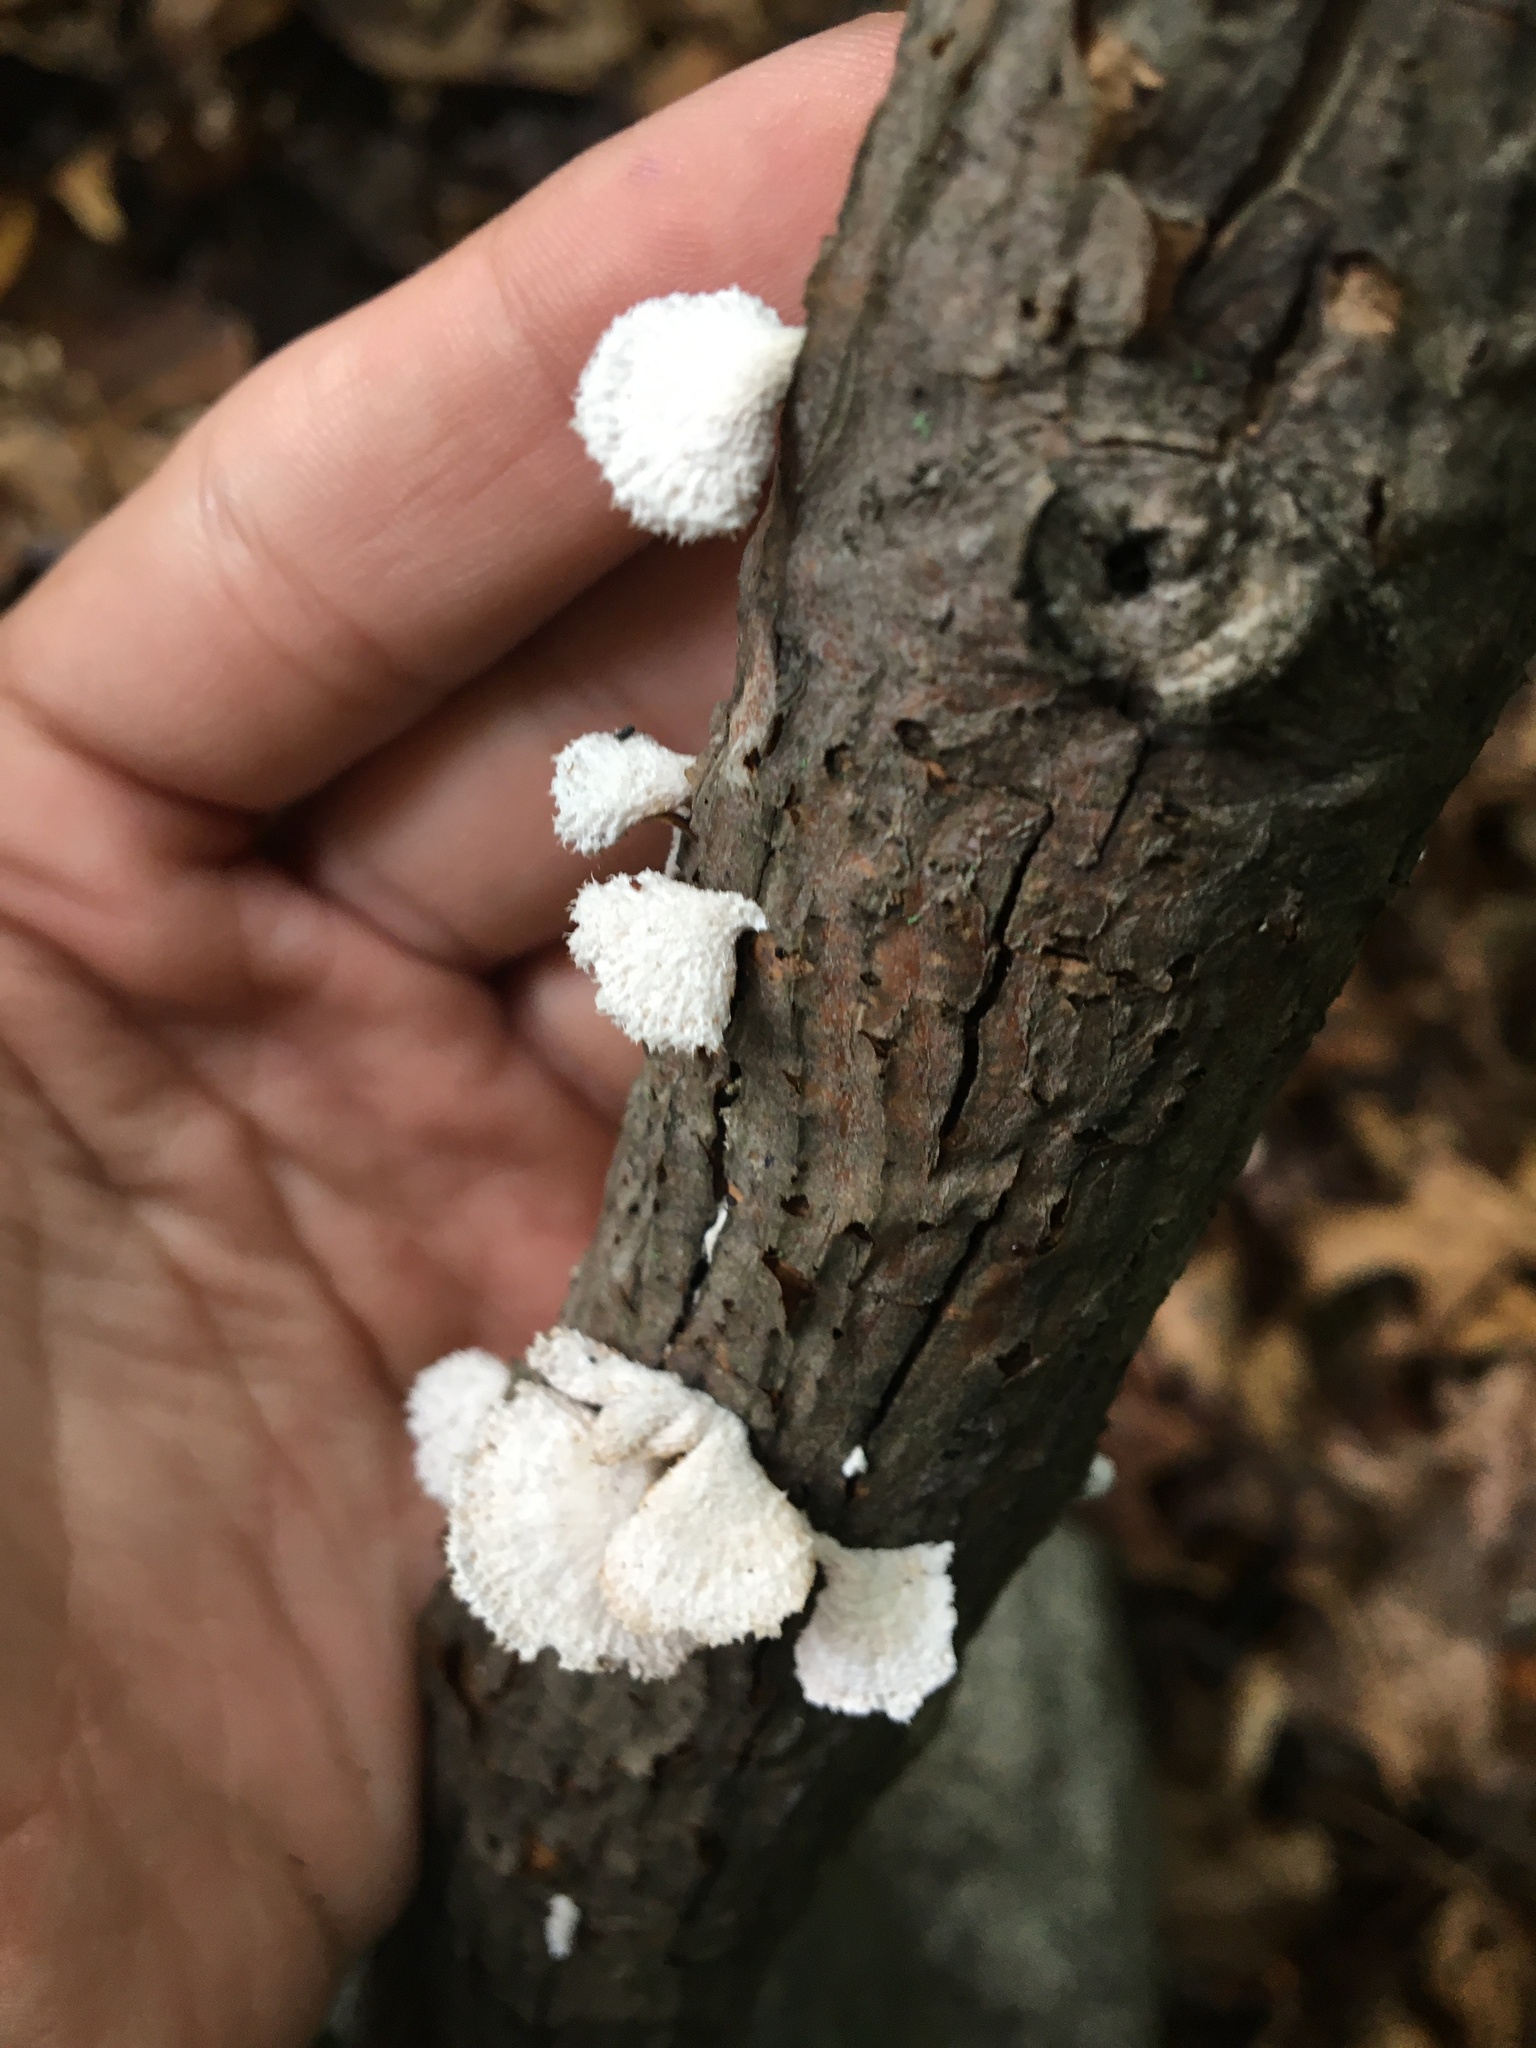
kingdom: Fungi
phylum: Basidiomycota
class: Agaricomycetes
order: Agaricales
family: Schizophyllaceae
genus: Schizophyllum
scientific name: Schizophyllum commune
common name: Common porecrust
